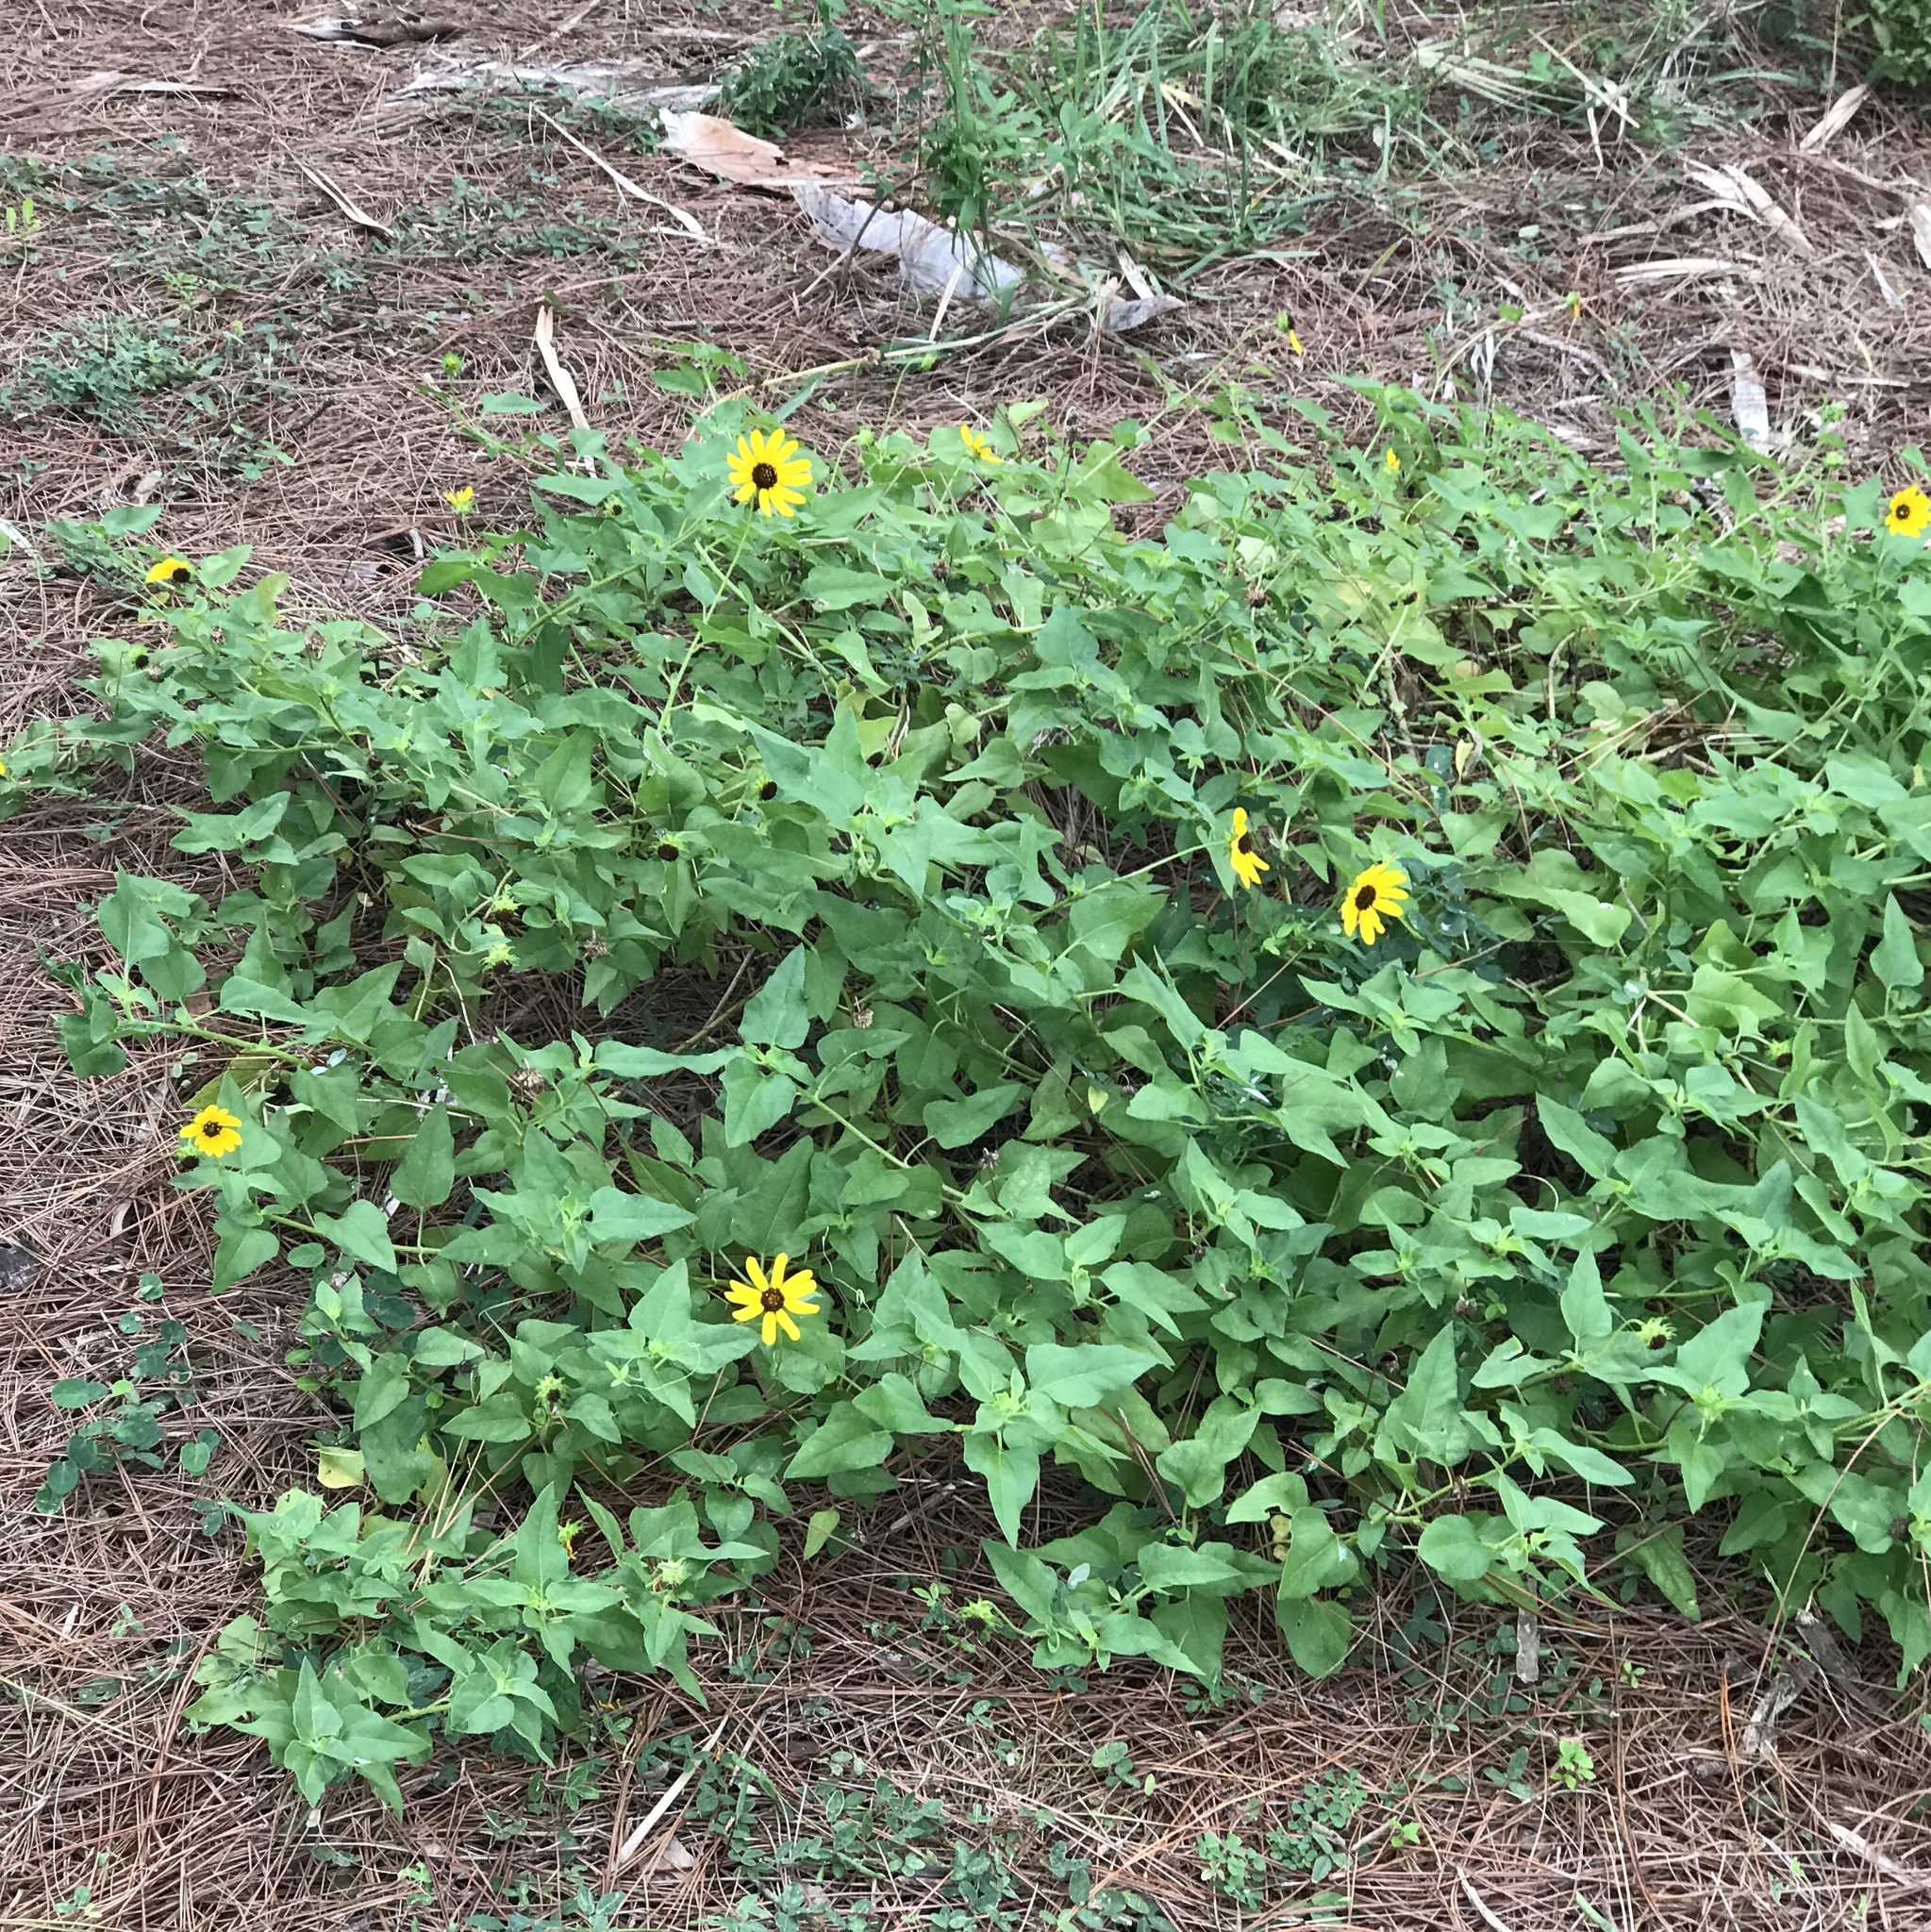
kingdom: Plantae
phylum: Tracheophyta
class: Magnoliopsida
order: Asterales
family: Asteraceae
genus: Helianthus
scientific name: Helianthus debilis
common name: Weak sunflower
